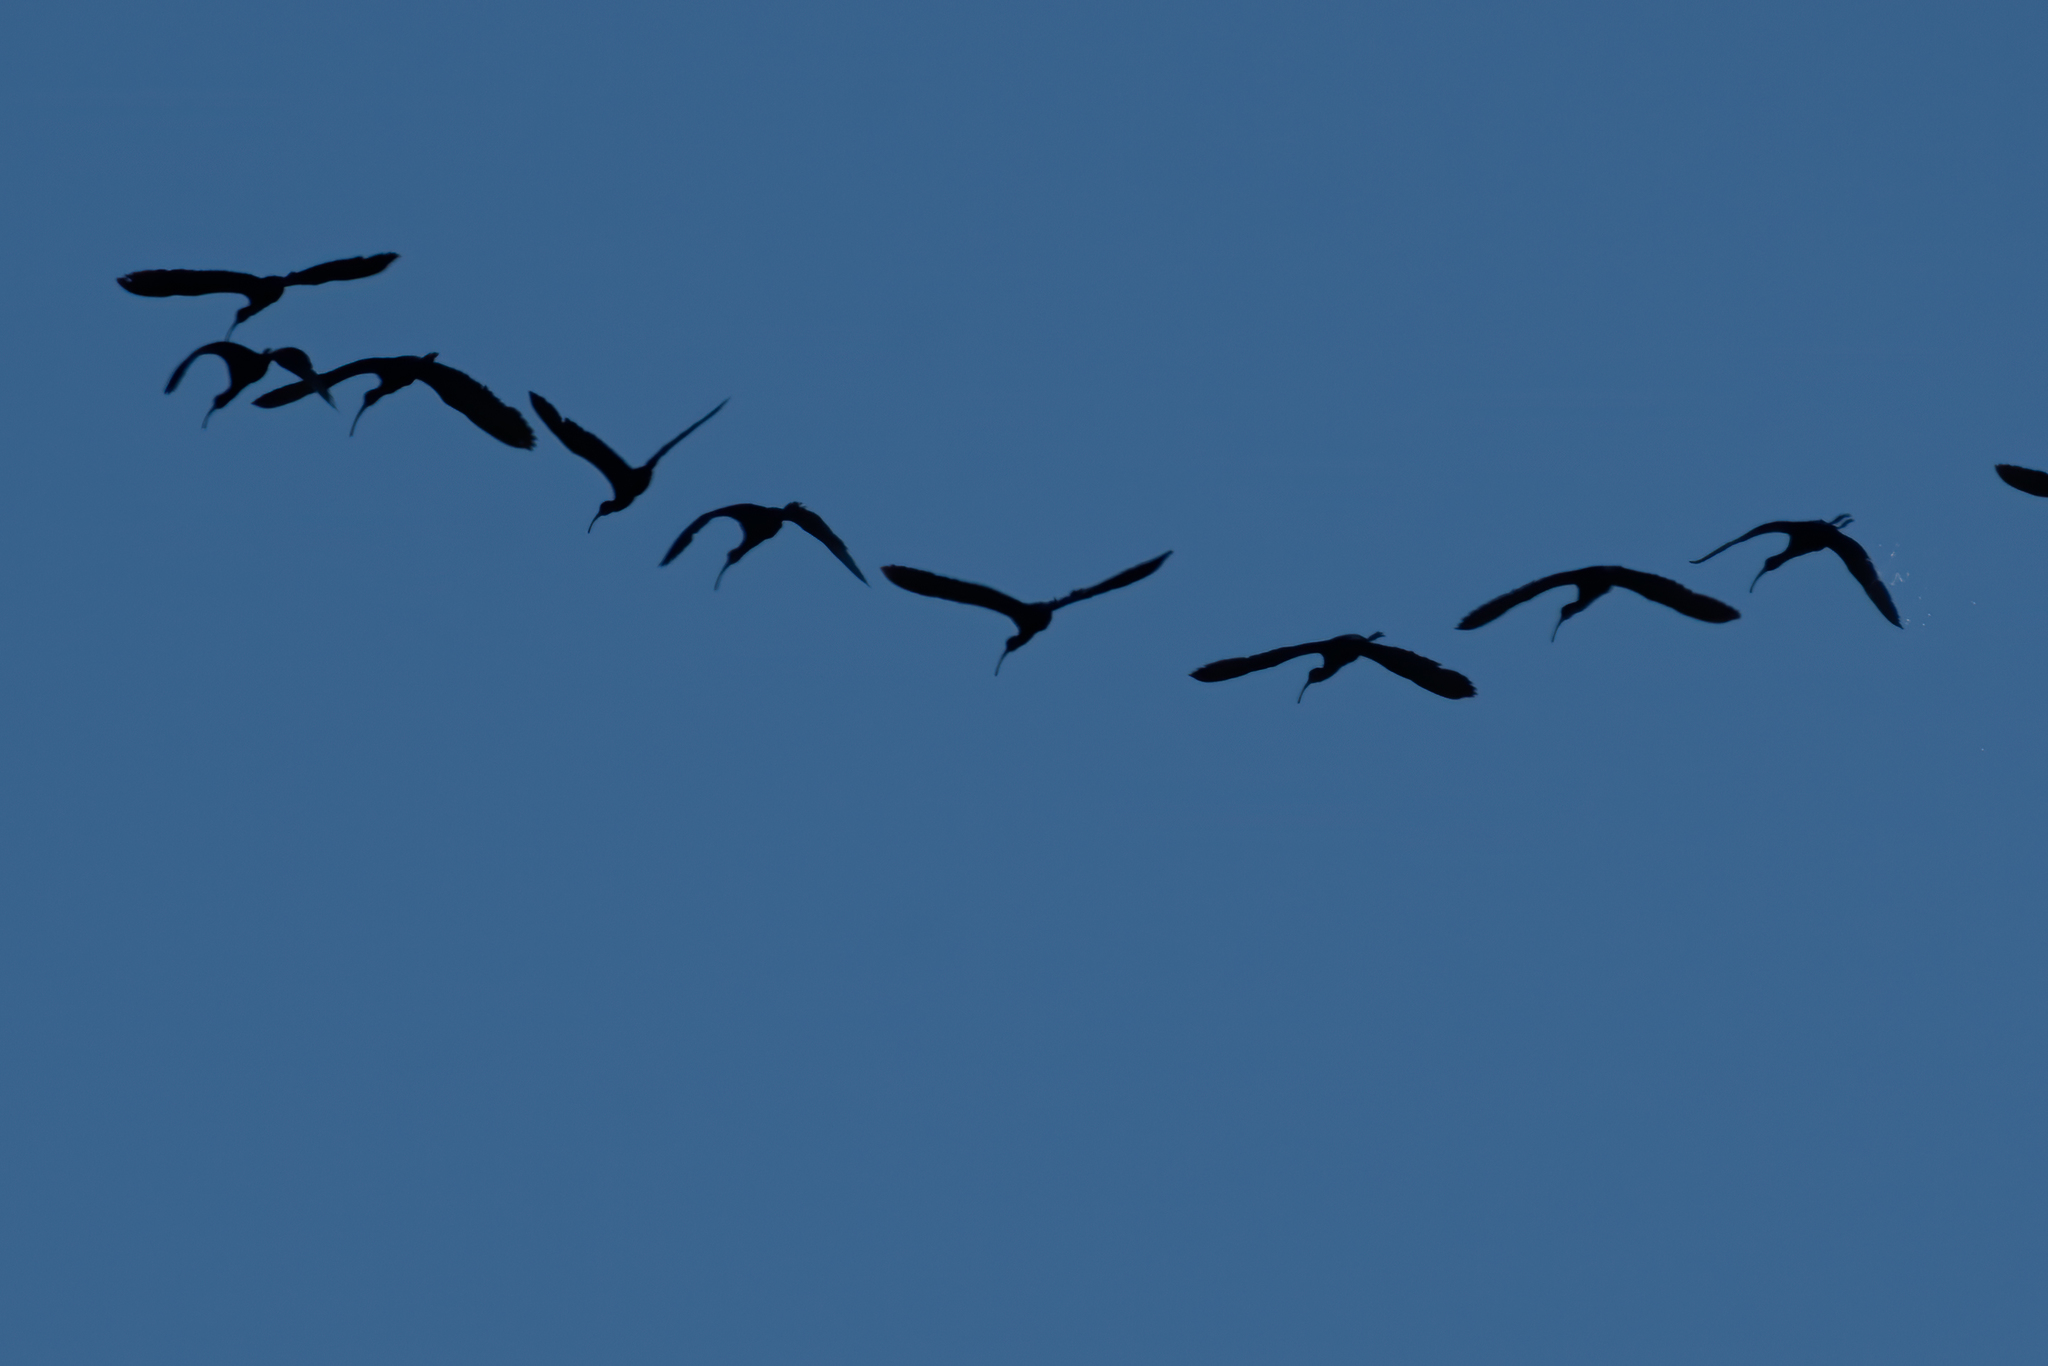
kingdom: Animalia
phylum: Chordata
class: Aves
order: Pelecaniformes
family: Threskiornithidae
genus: Plegadis
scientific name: Plegadis chihi
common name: White-faced ibis
